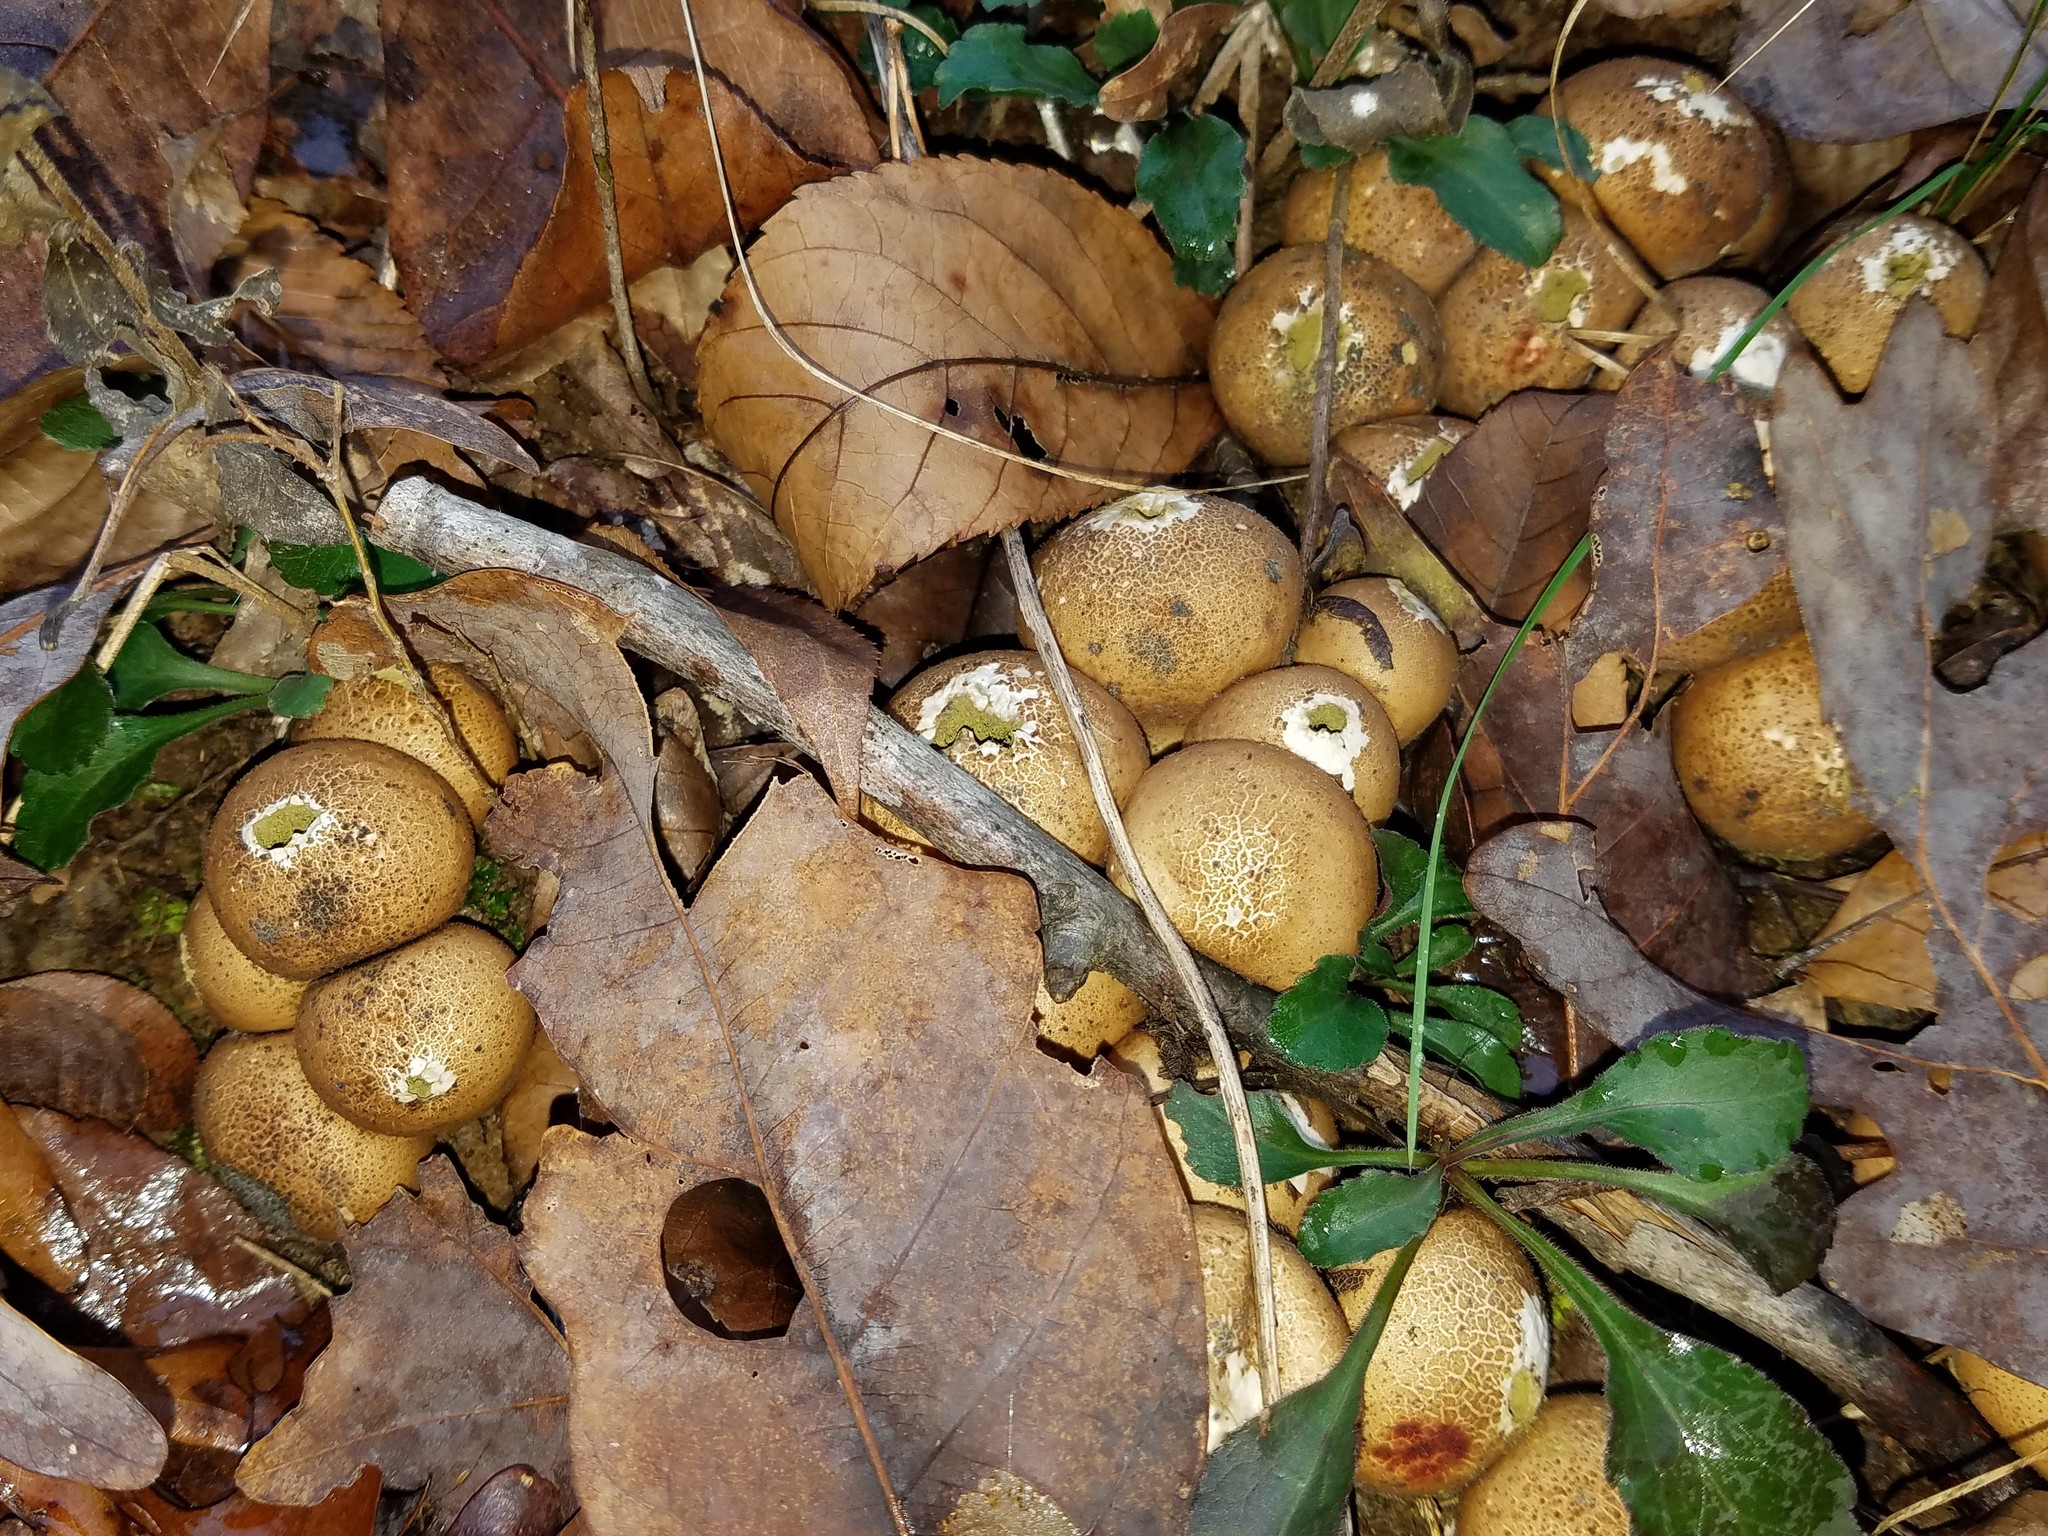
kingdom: Fungi
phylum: Basidiomycota
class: Agaricomycetes
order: Agaricales
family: Lycoperdaceae
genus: Apioperdon
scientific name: Apioperdon pyriforme
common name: Pear-shaped puffball
